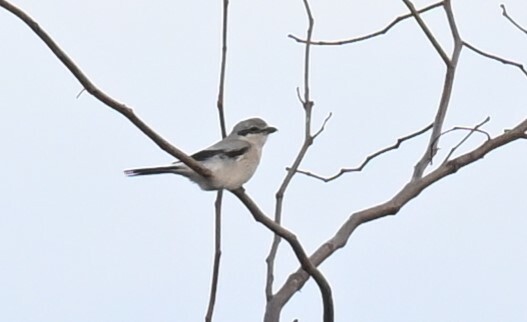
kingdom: Animalia
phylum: Chordata
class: Aves
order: Passeriformes
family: Laniidae
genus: Lanius
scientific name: Lanius borealis
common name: Northern shrike
